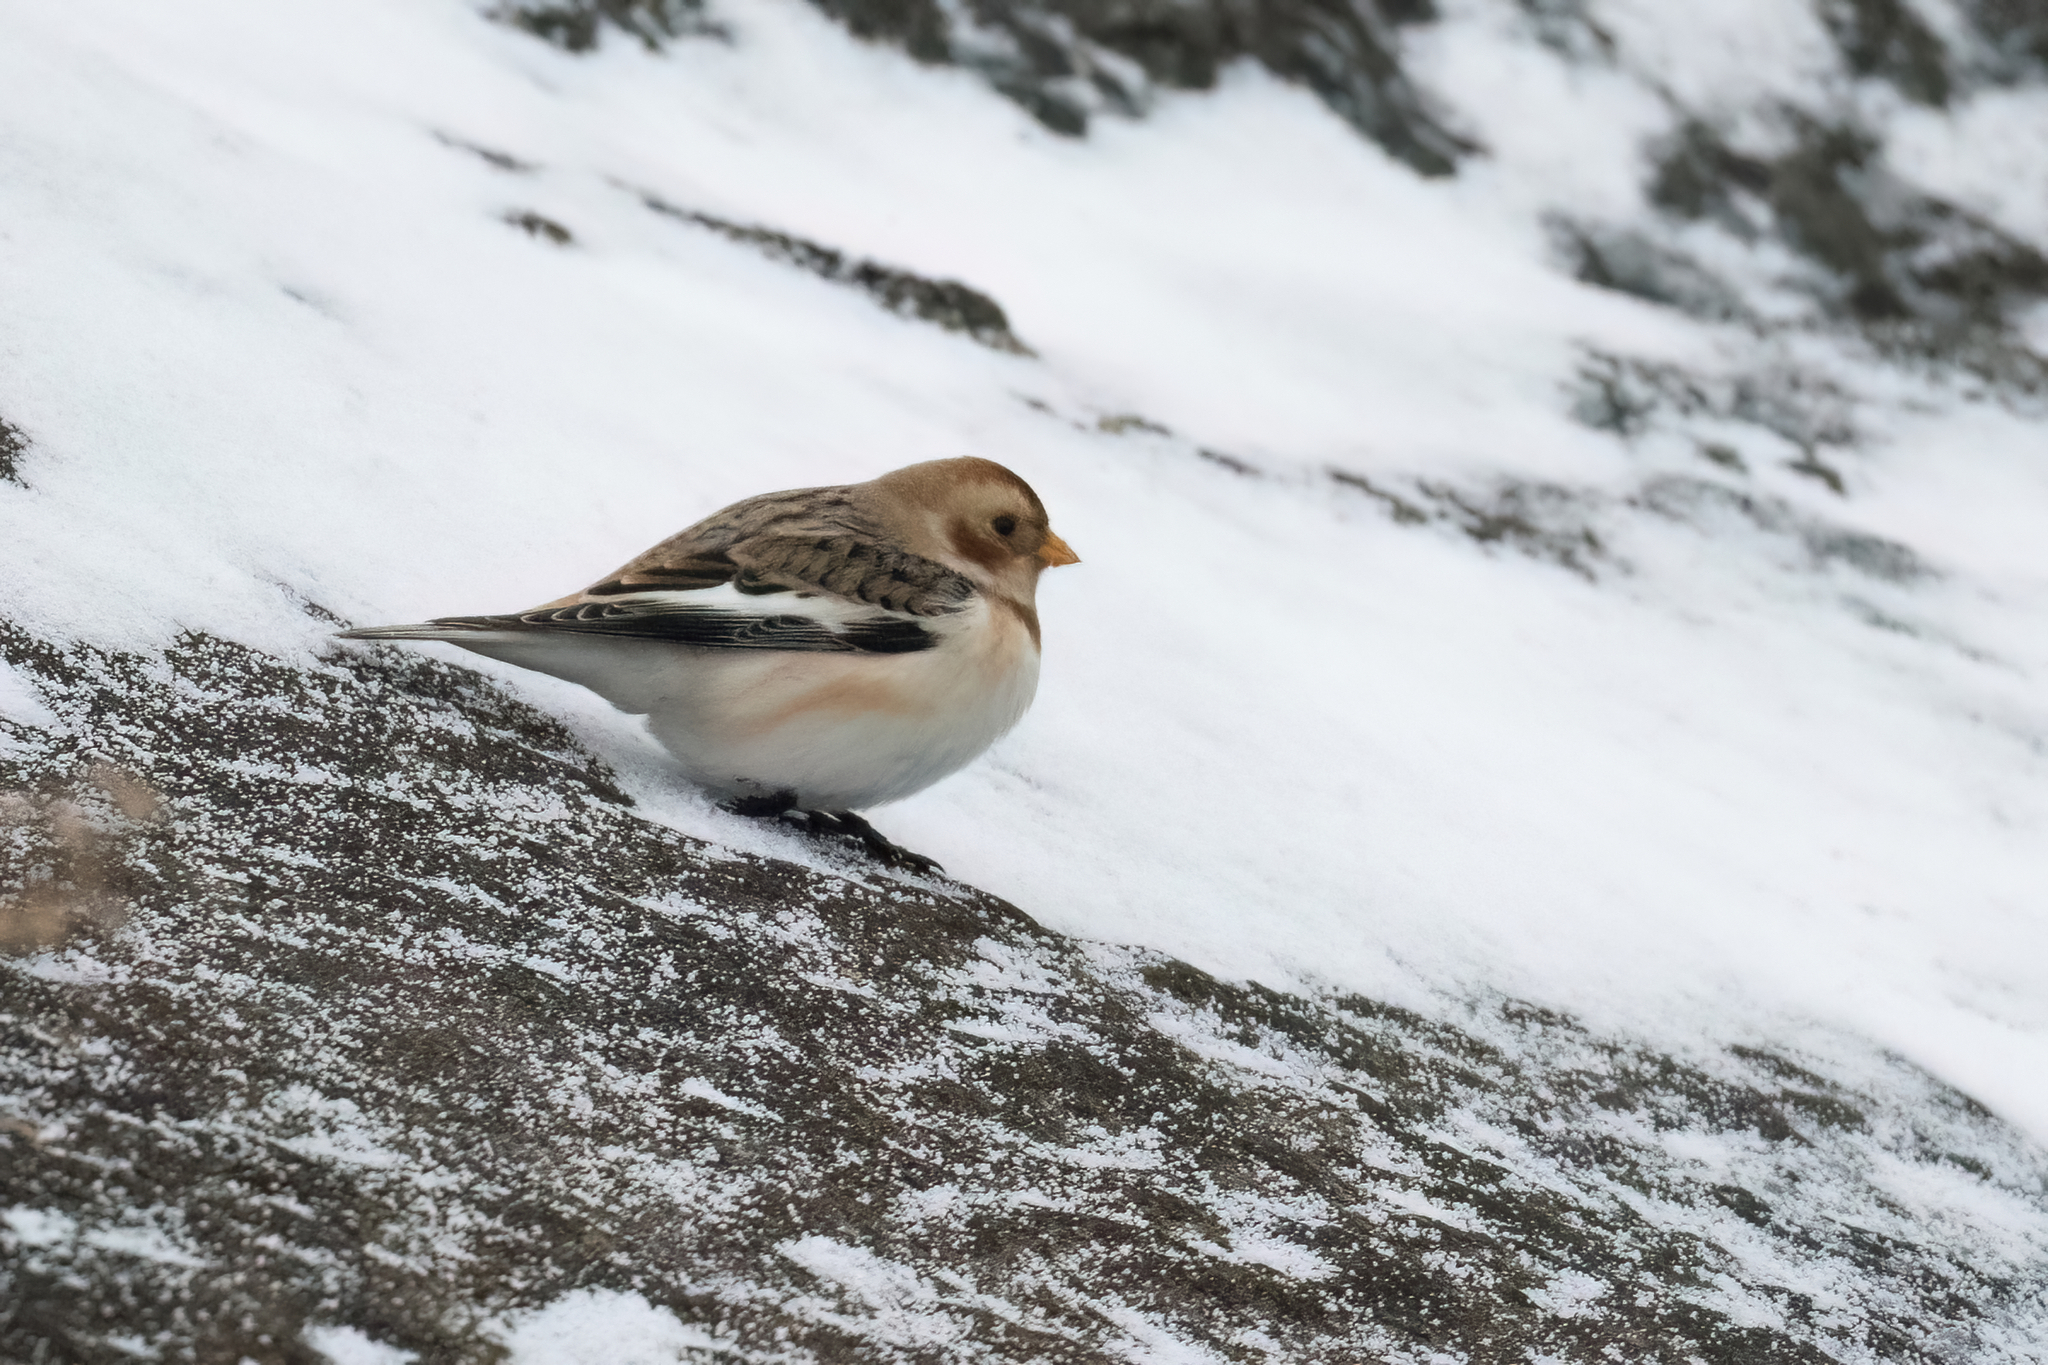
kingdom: Animalia
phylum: Chordata
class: Aves
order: Passeriformes
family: Calcariidae
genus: Plectrophenax
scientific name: Plectrophenax nivalis
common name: Snow bunting
